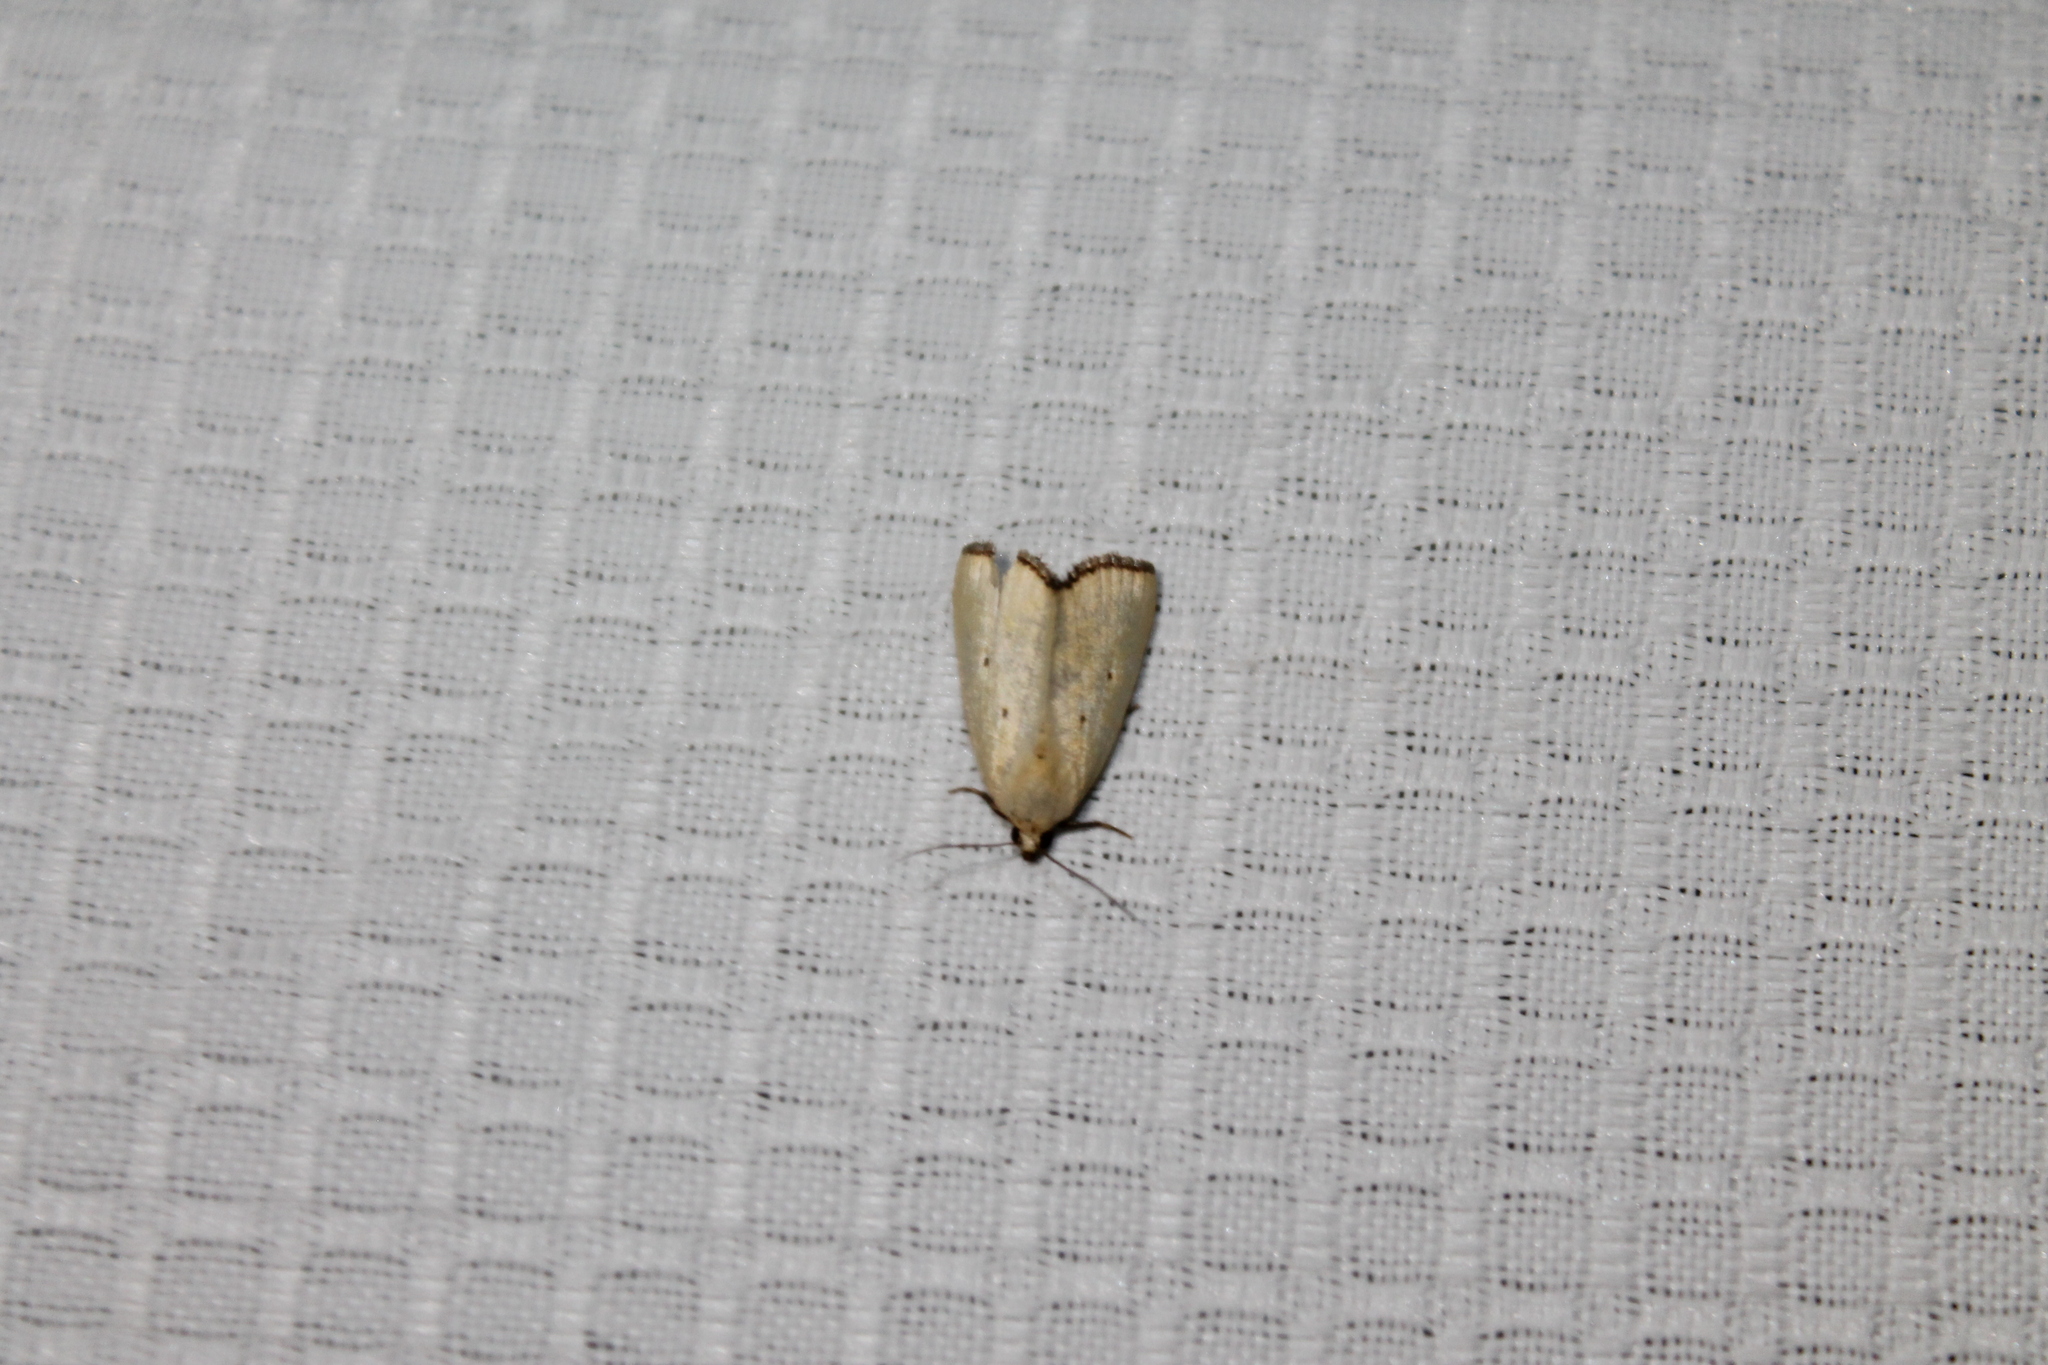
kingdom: Animalia
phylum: Arthropoda
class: Insecta
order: Lepidoptera
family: Noctuidae
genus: Marimatha
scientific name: Marimatha nigrofimbria
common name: Black-bordered lemon moth
